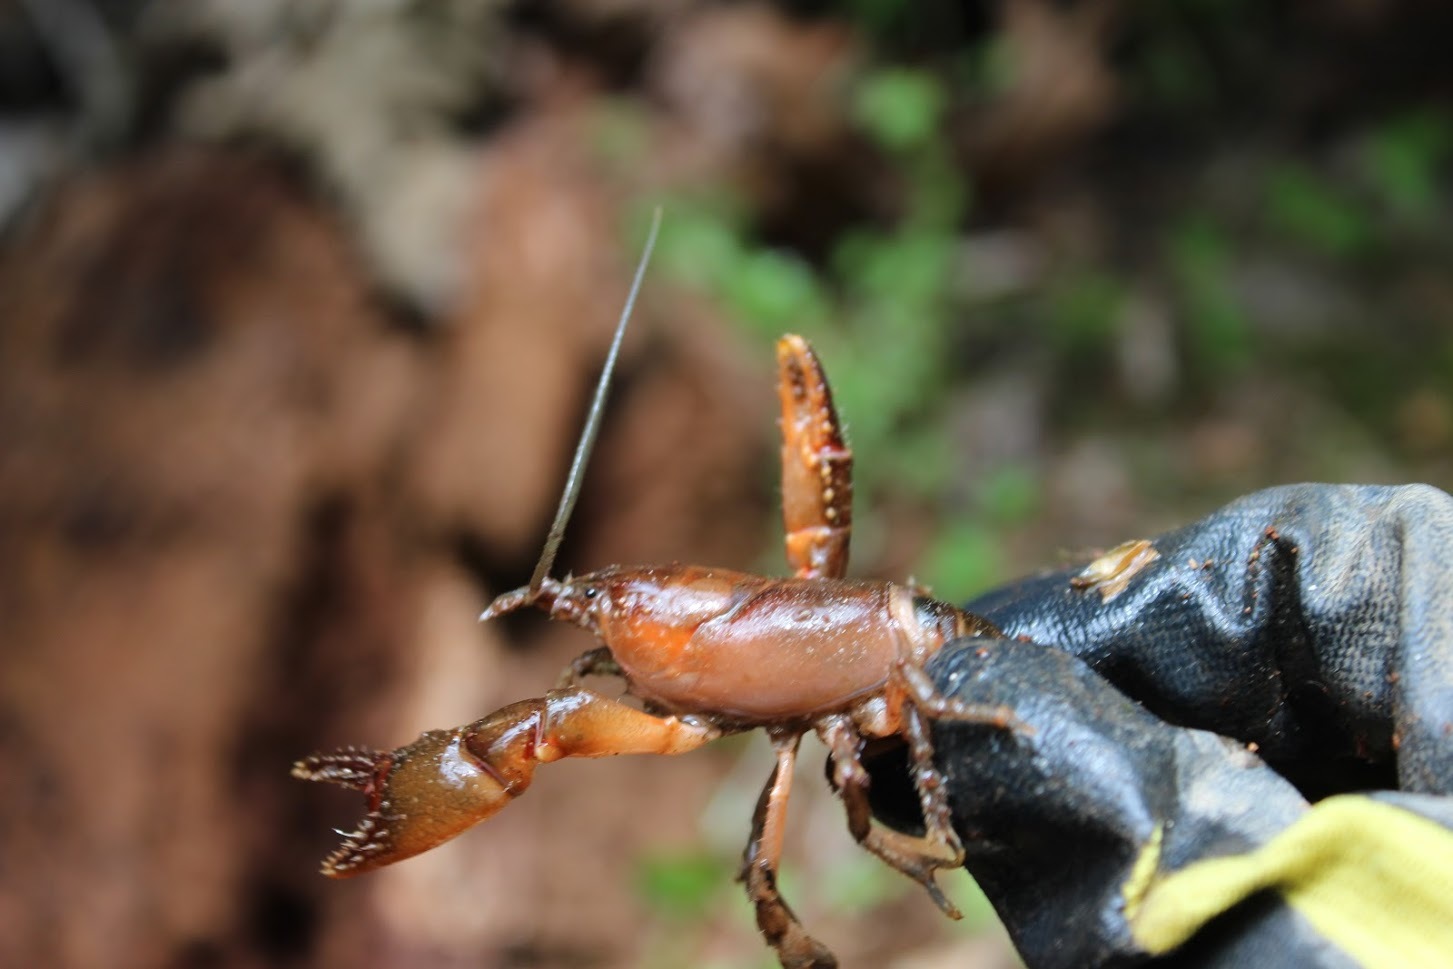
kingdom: Animalia
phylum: Arthropoda
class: Malacostraca
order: Decapoda
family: Cambaridae
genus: Cambarus
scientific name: Cambarus asperimanus
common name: Mitten crayfish
